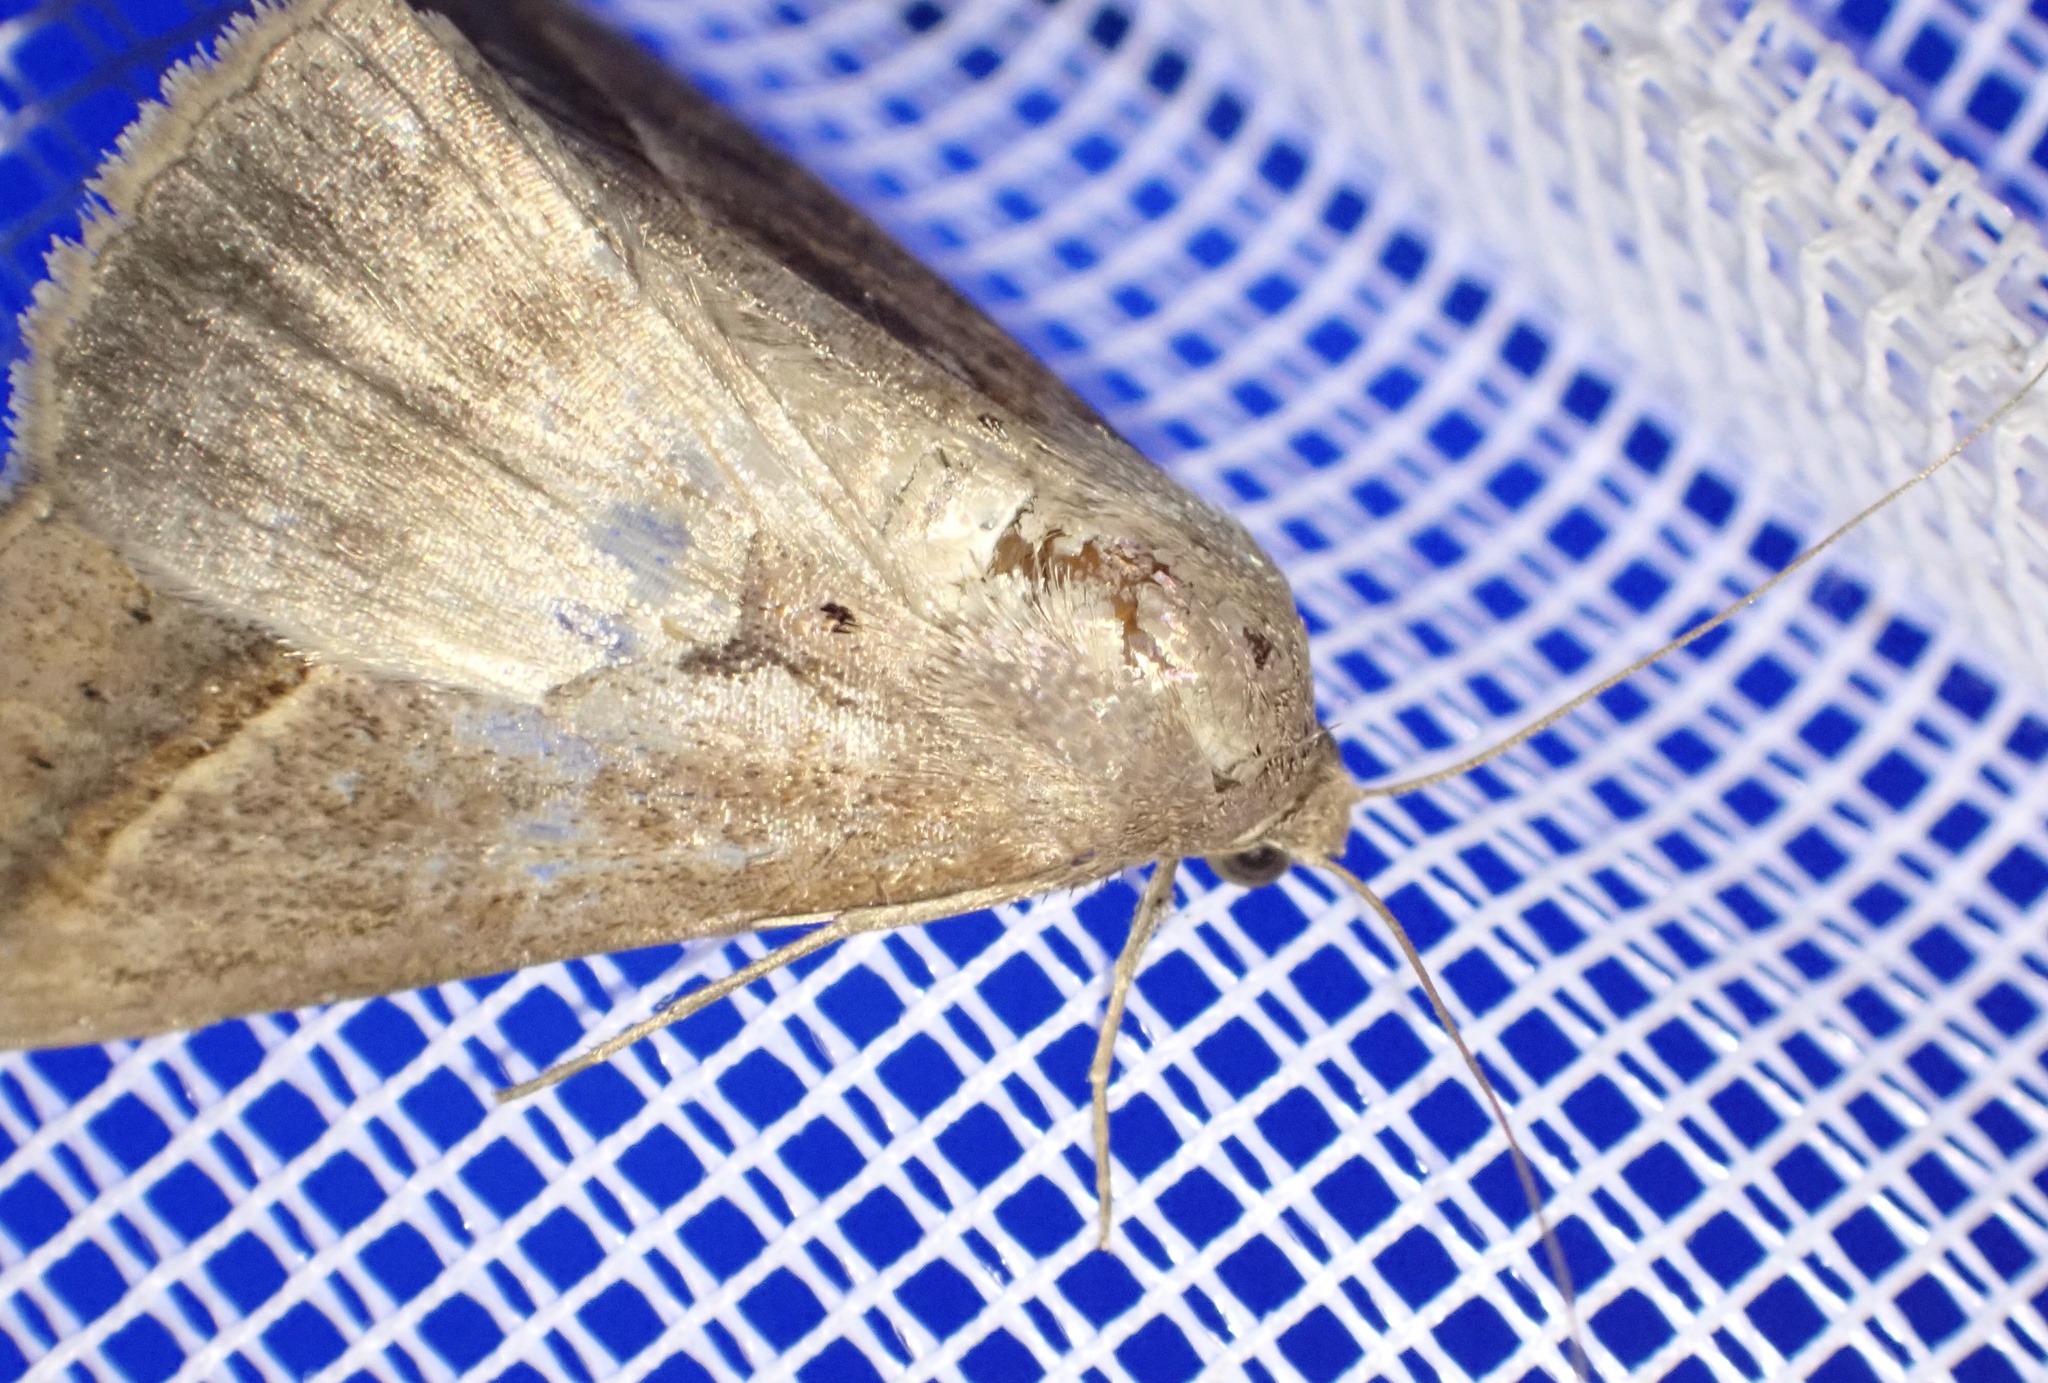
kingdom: Animalia
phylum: Arthropoda
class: Insecta
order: Lepidoptera
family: Erebidae
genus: Mocis
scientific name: Mocis frugalis
